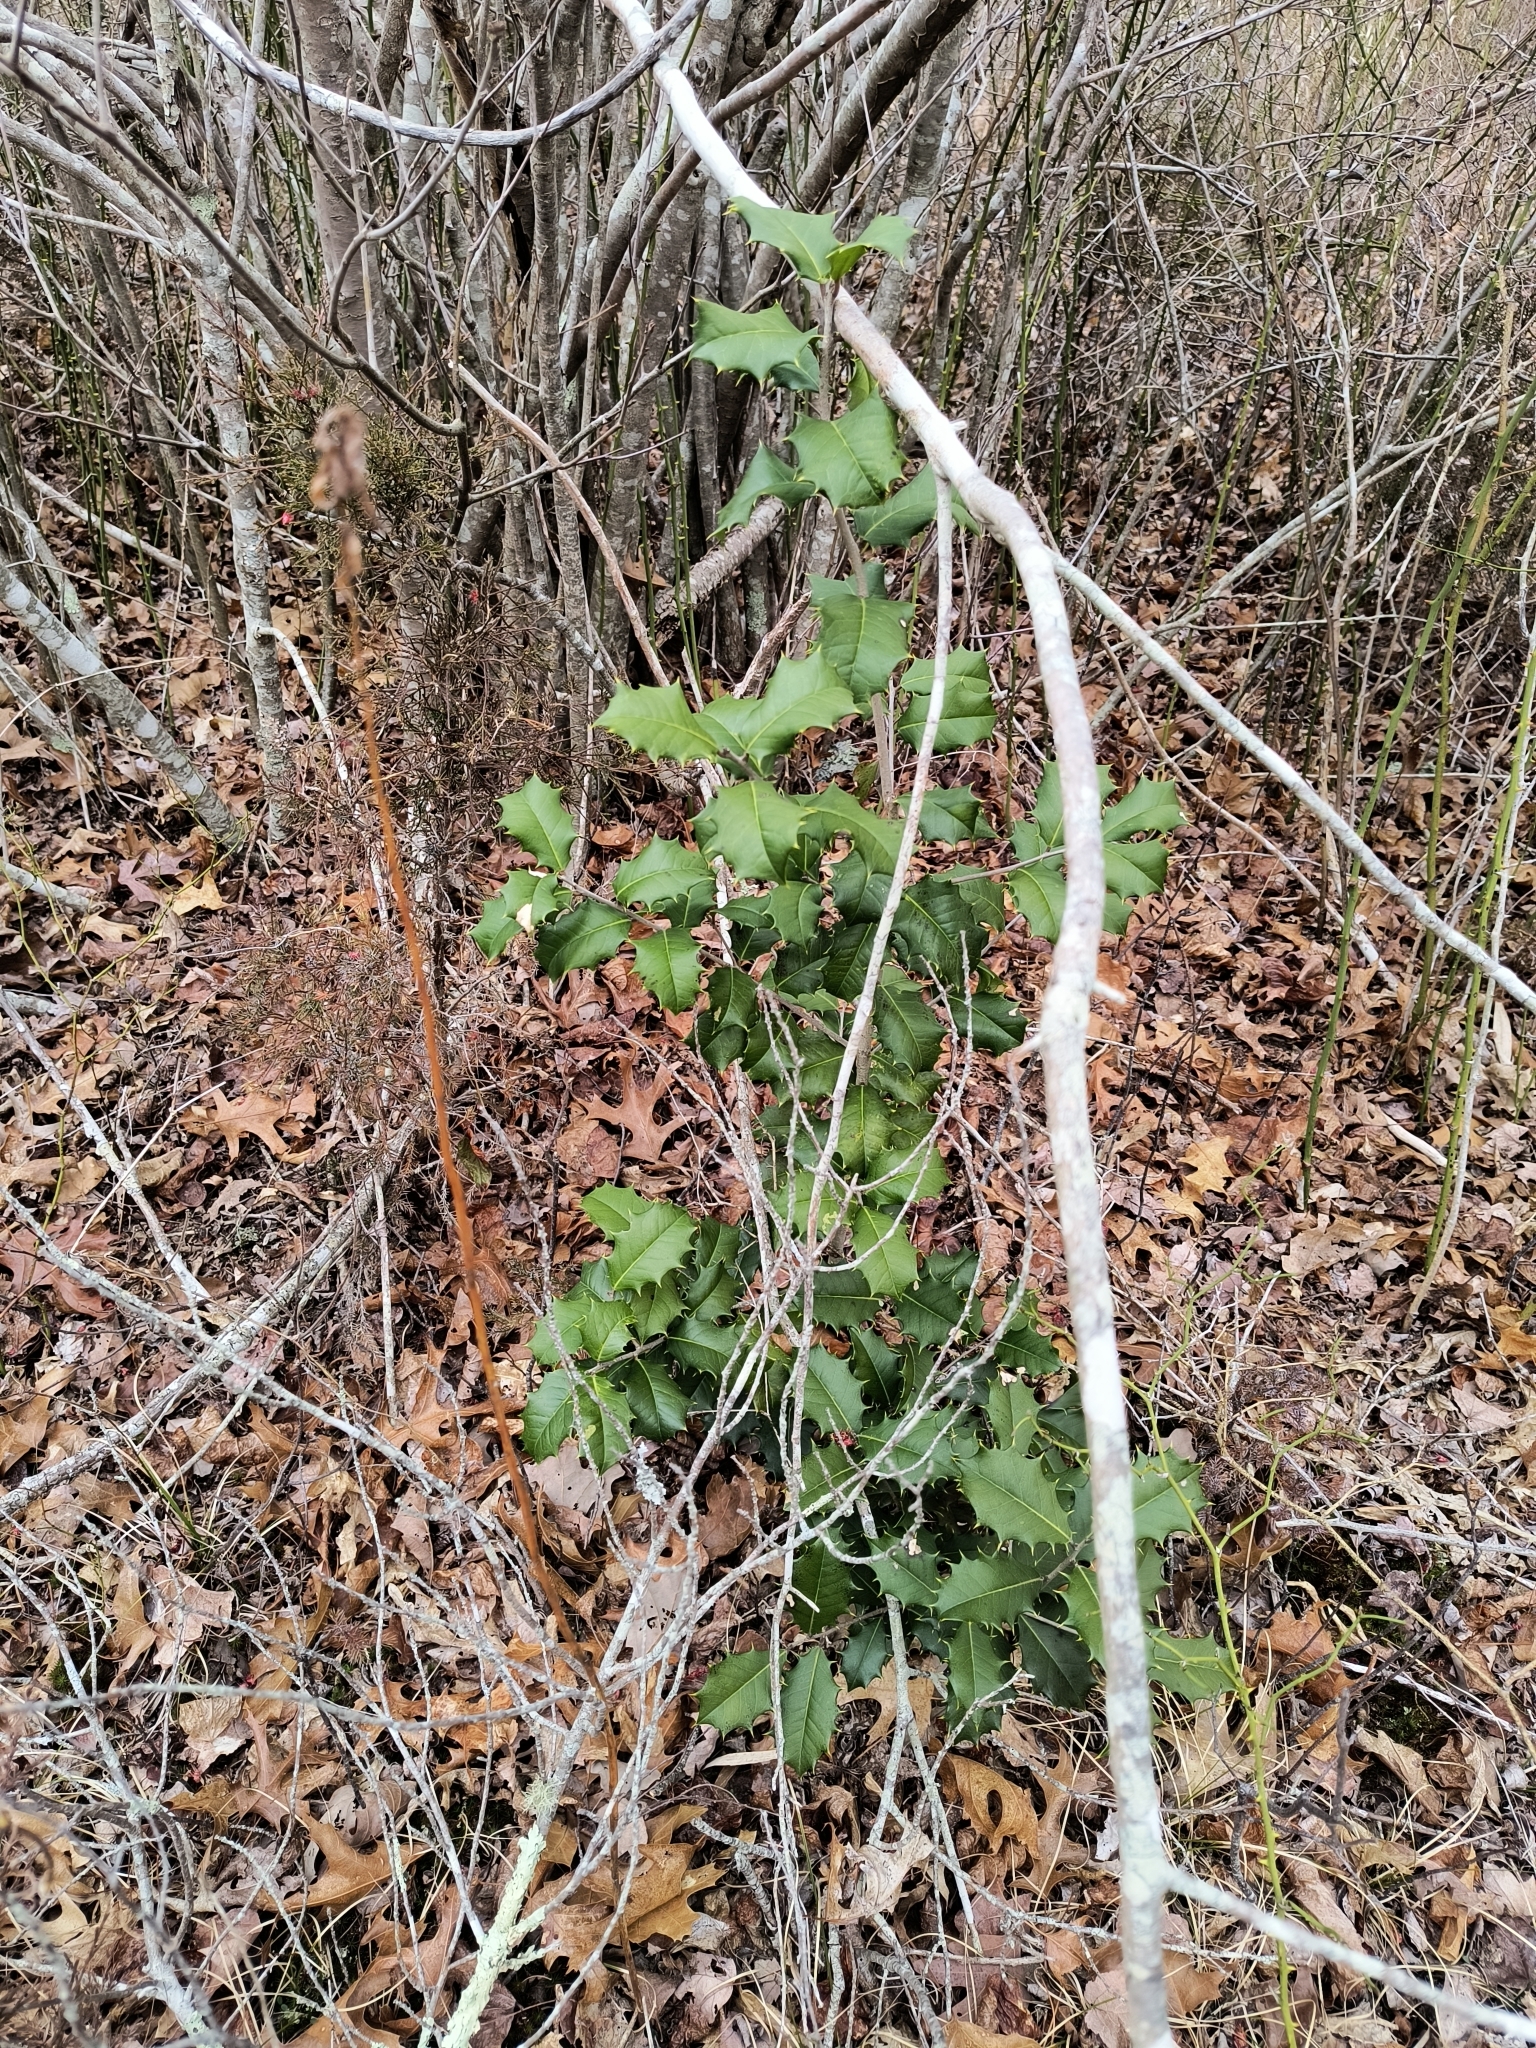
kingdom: Plantae
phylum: Tracheophyta
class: Magnoliopsida
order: Aquifoliales
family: Aquifoliaceae
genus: Ilex
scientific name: Ilex opaca
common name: American holly
